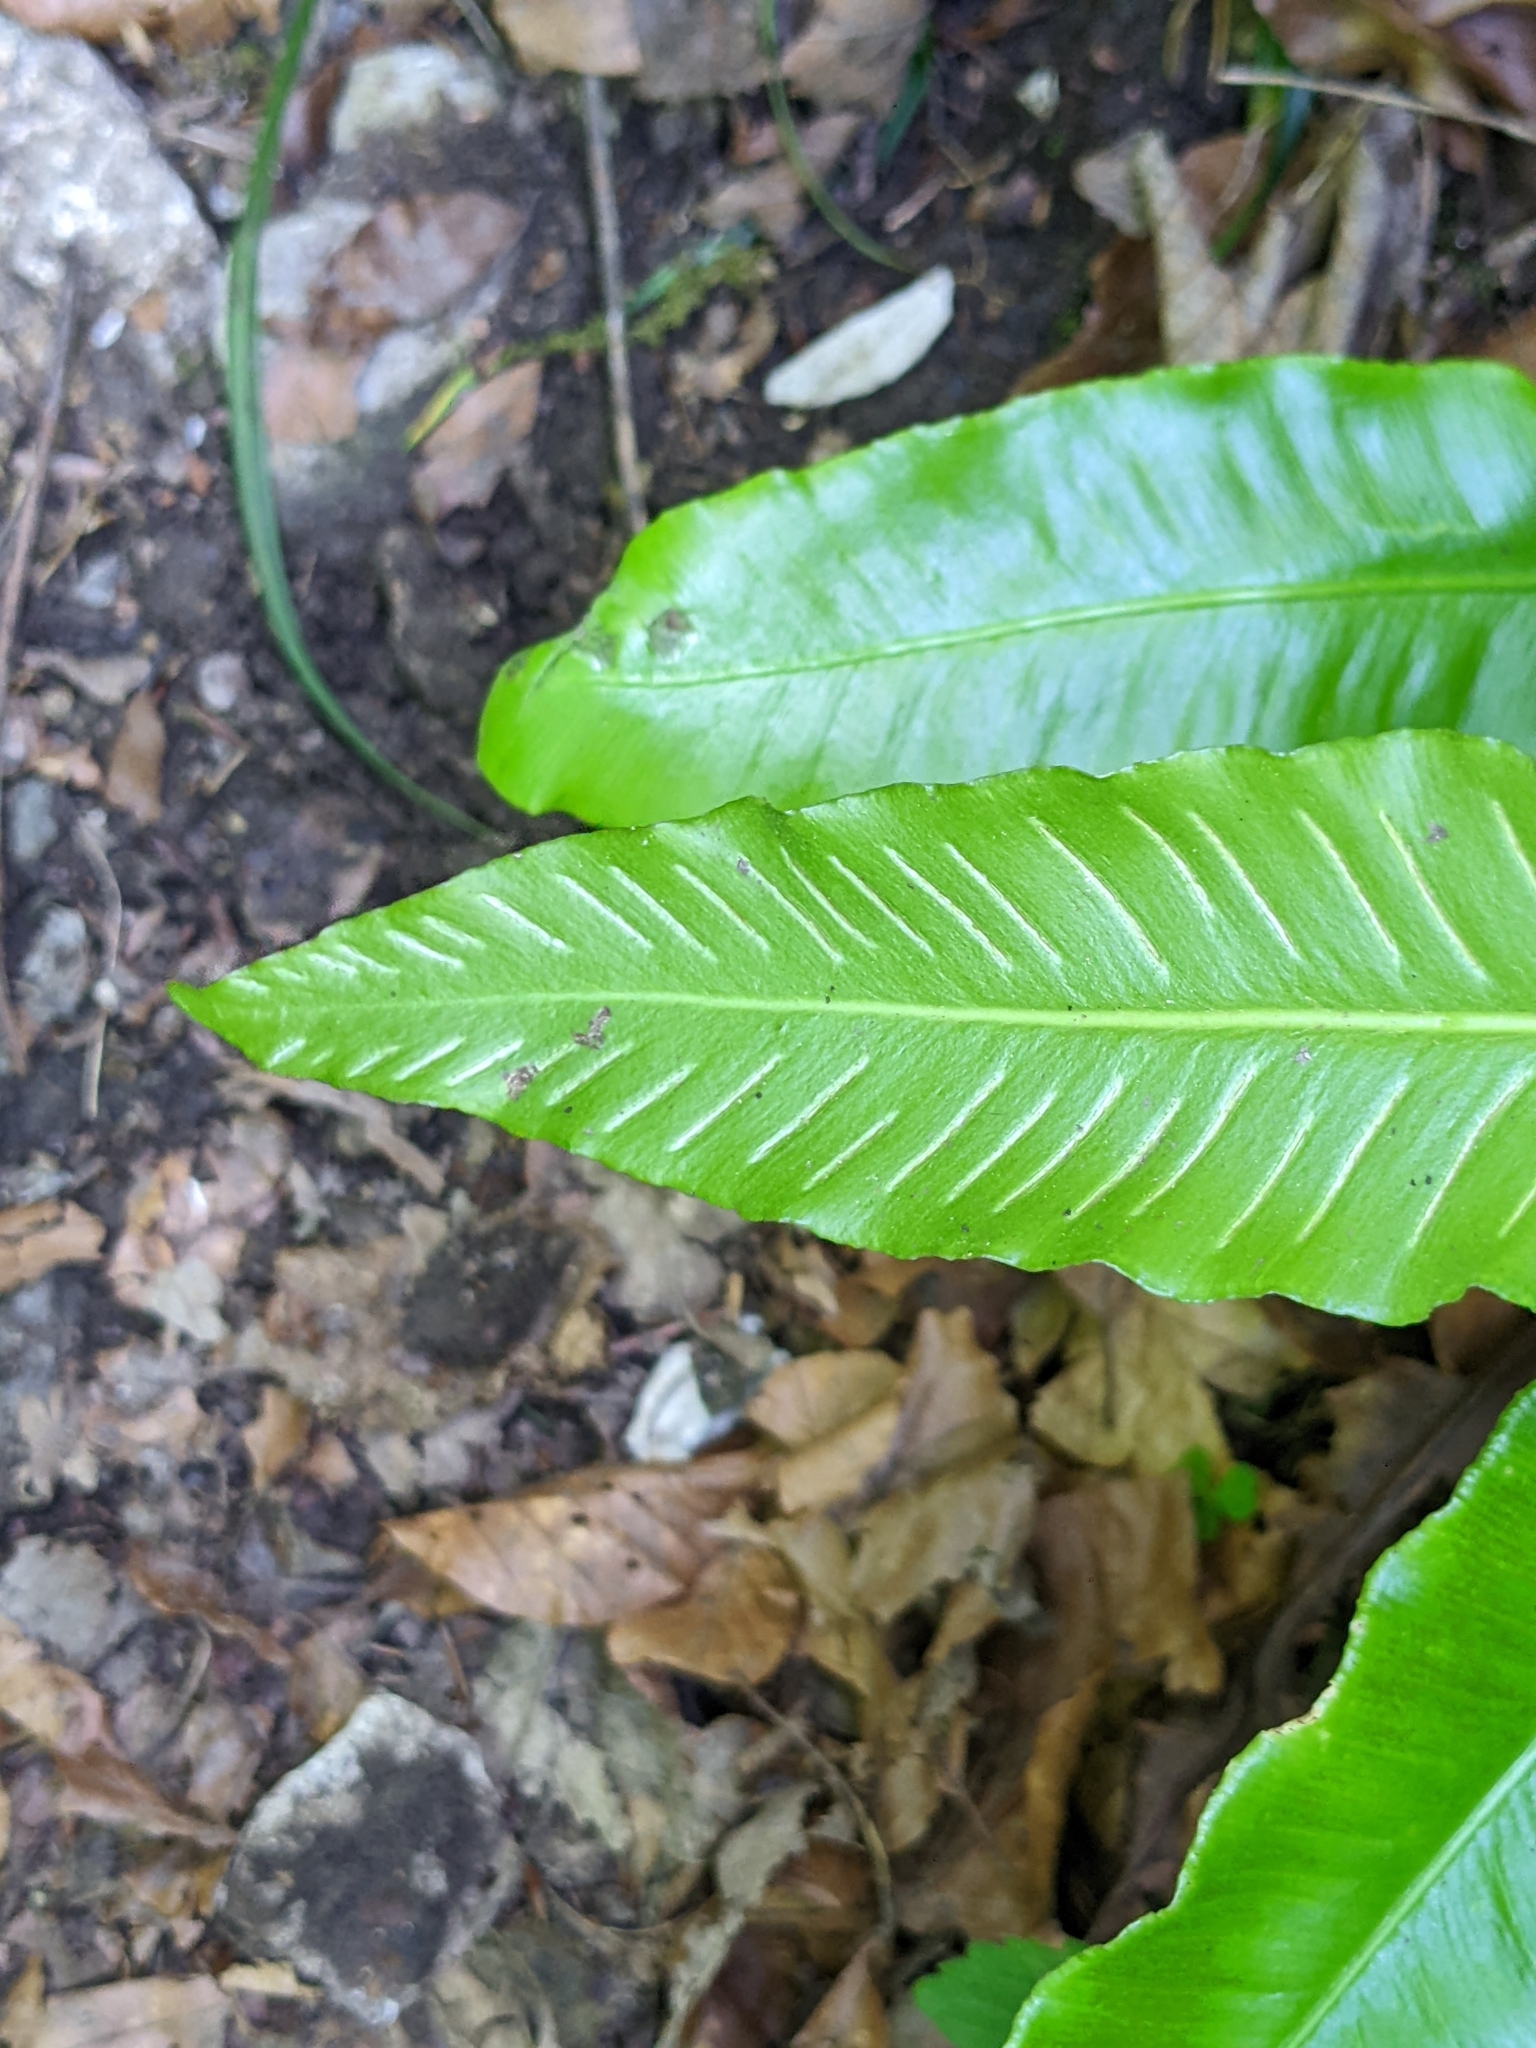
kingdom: Plantae
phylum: Tracheophyta
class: Polypodiopsida
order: Polypodiales
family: Aspleniaceae
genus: Asplenium
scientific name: Asplenium scolopendrium
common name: Hart's-tongue fern
